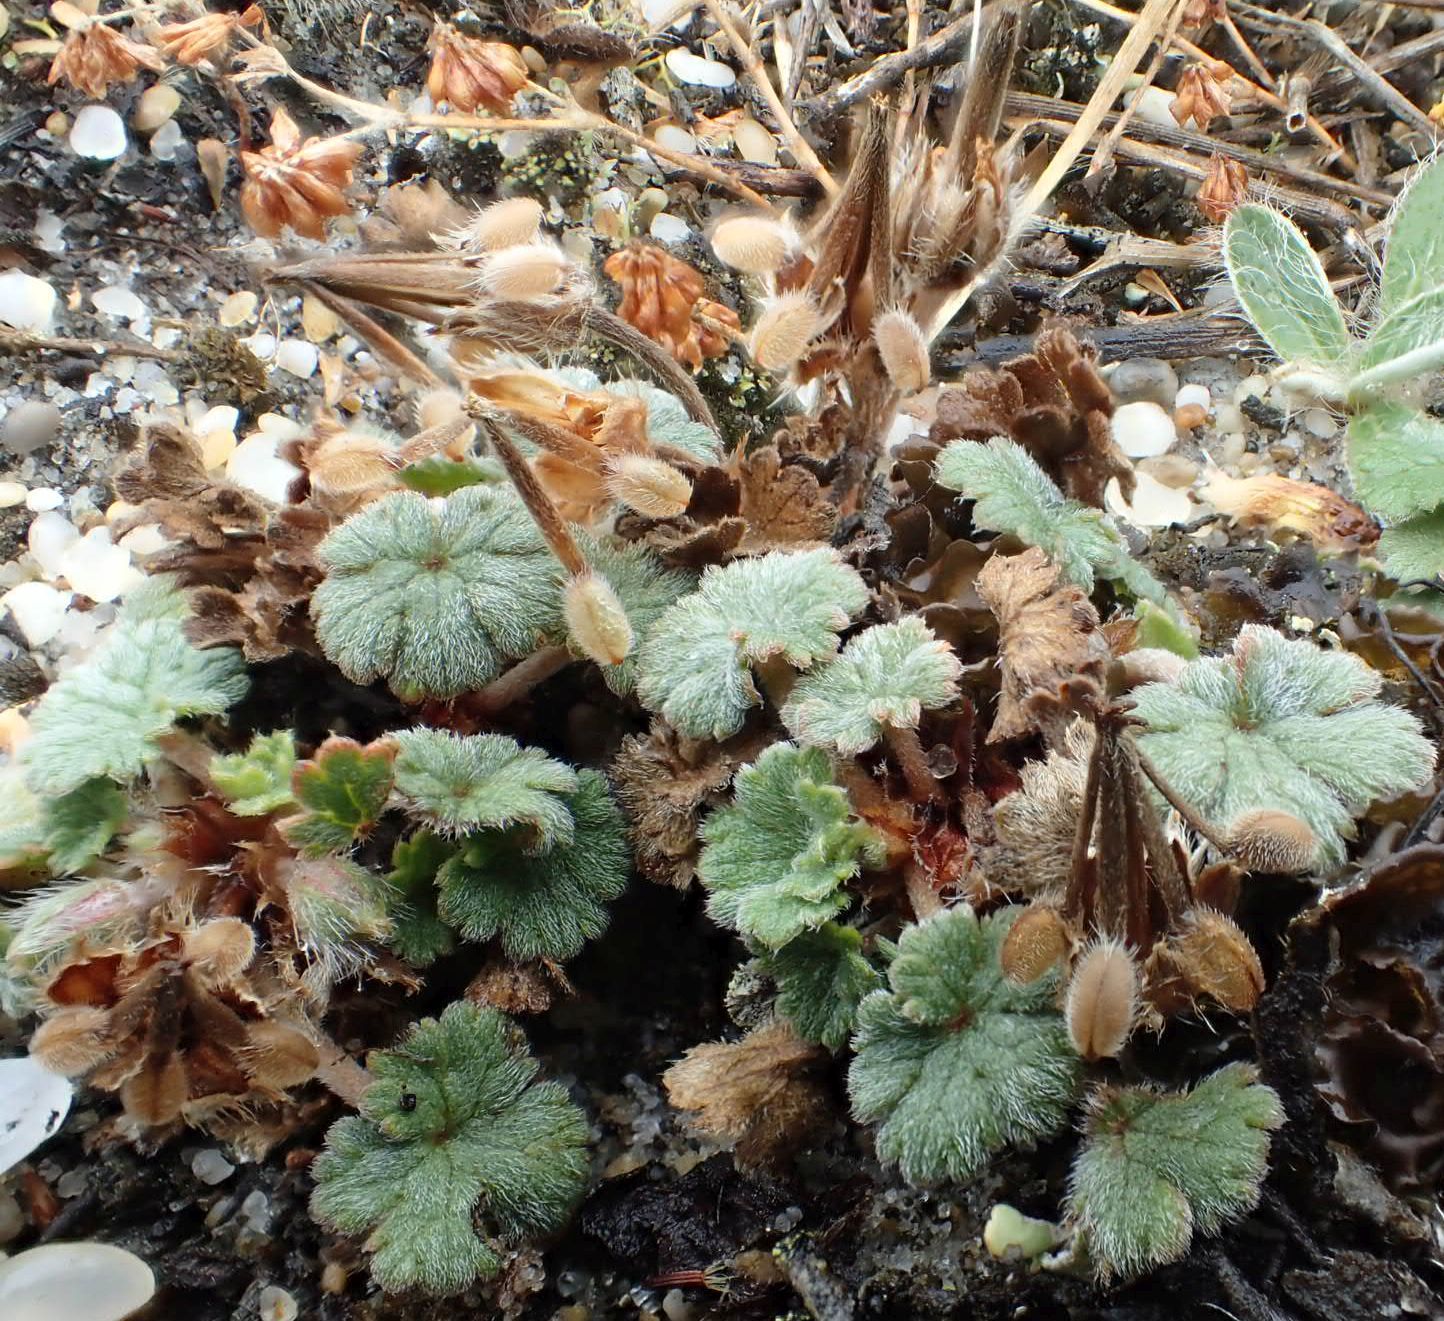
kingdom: Plantae
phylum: Tracheophyta
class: Magnoliopsida
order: Geraniales
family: Geraniaceae
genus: Geranium
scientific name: Geranium brevicaule
